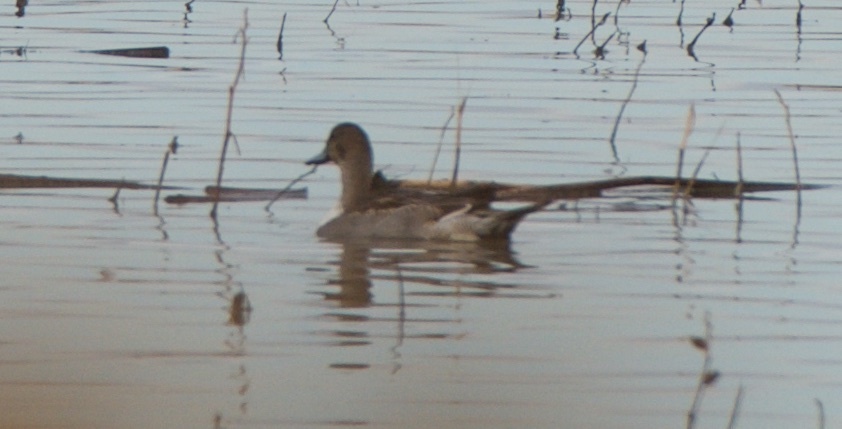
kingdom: Animalia
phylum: Chordata
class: Aves
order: Anseriformes
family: Anatidae
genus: Anas
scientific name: Anas acuta
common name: Northern pintail
